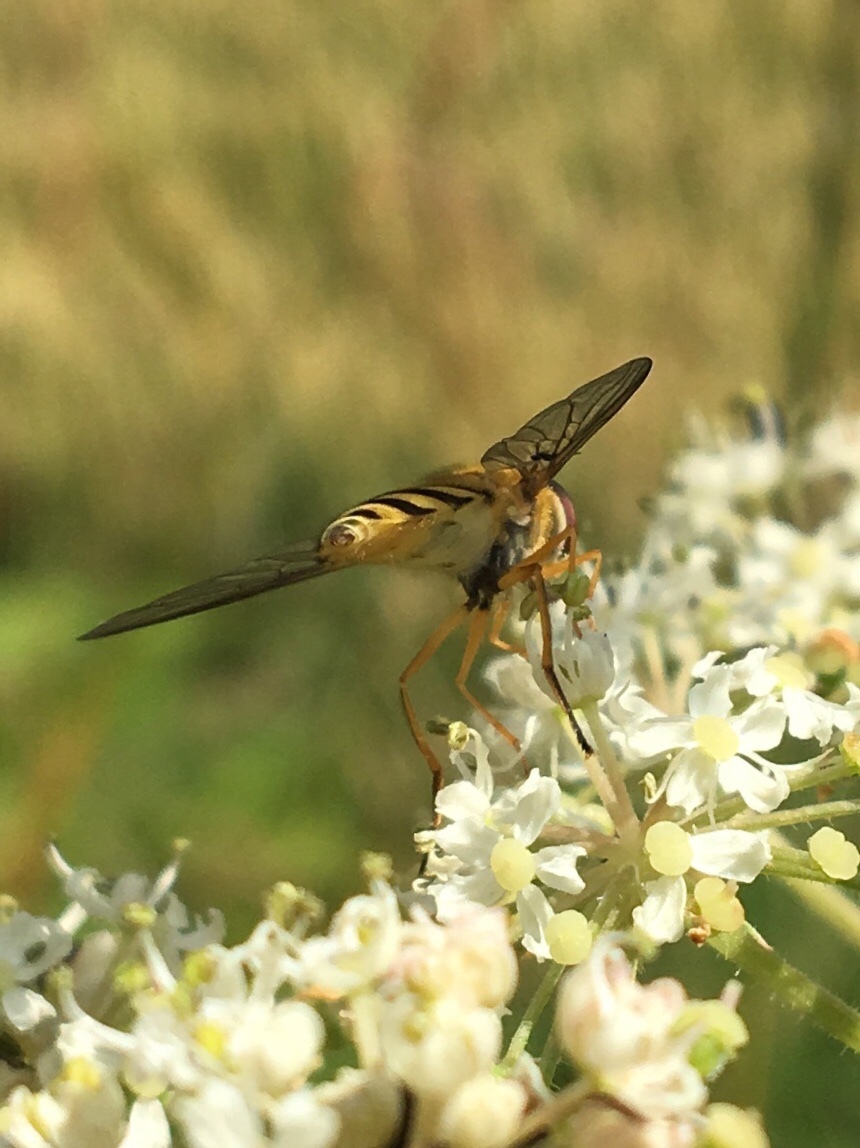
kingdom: Animalia
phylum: Arthropoda
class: Insecta
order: Diptera
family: Syrphidae
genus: Syrphus
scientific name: Syrphus ribesii
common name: Common flower fly
